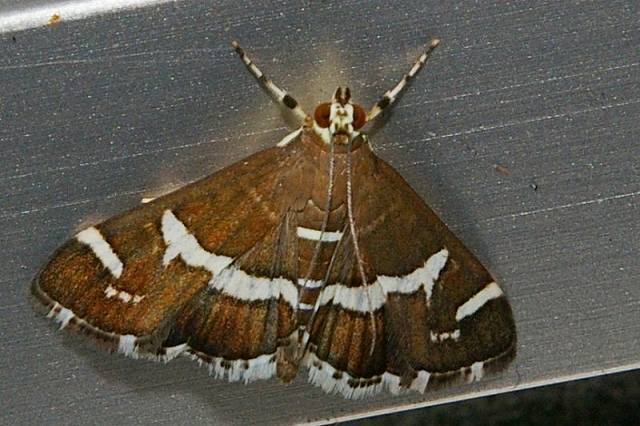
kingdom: Animalia
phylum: Arthropoda
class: Insecta
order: Lepidoptera
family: Crambidae
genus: Spoladea
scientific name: Spoladea recurvalis
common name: Beet webworm moth
